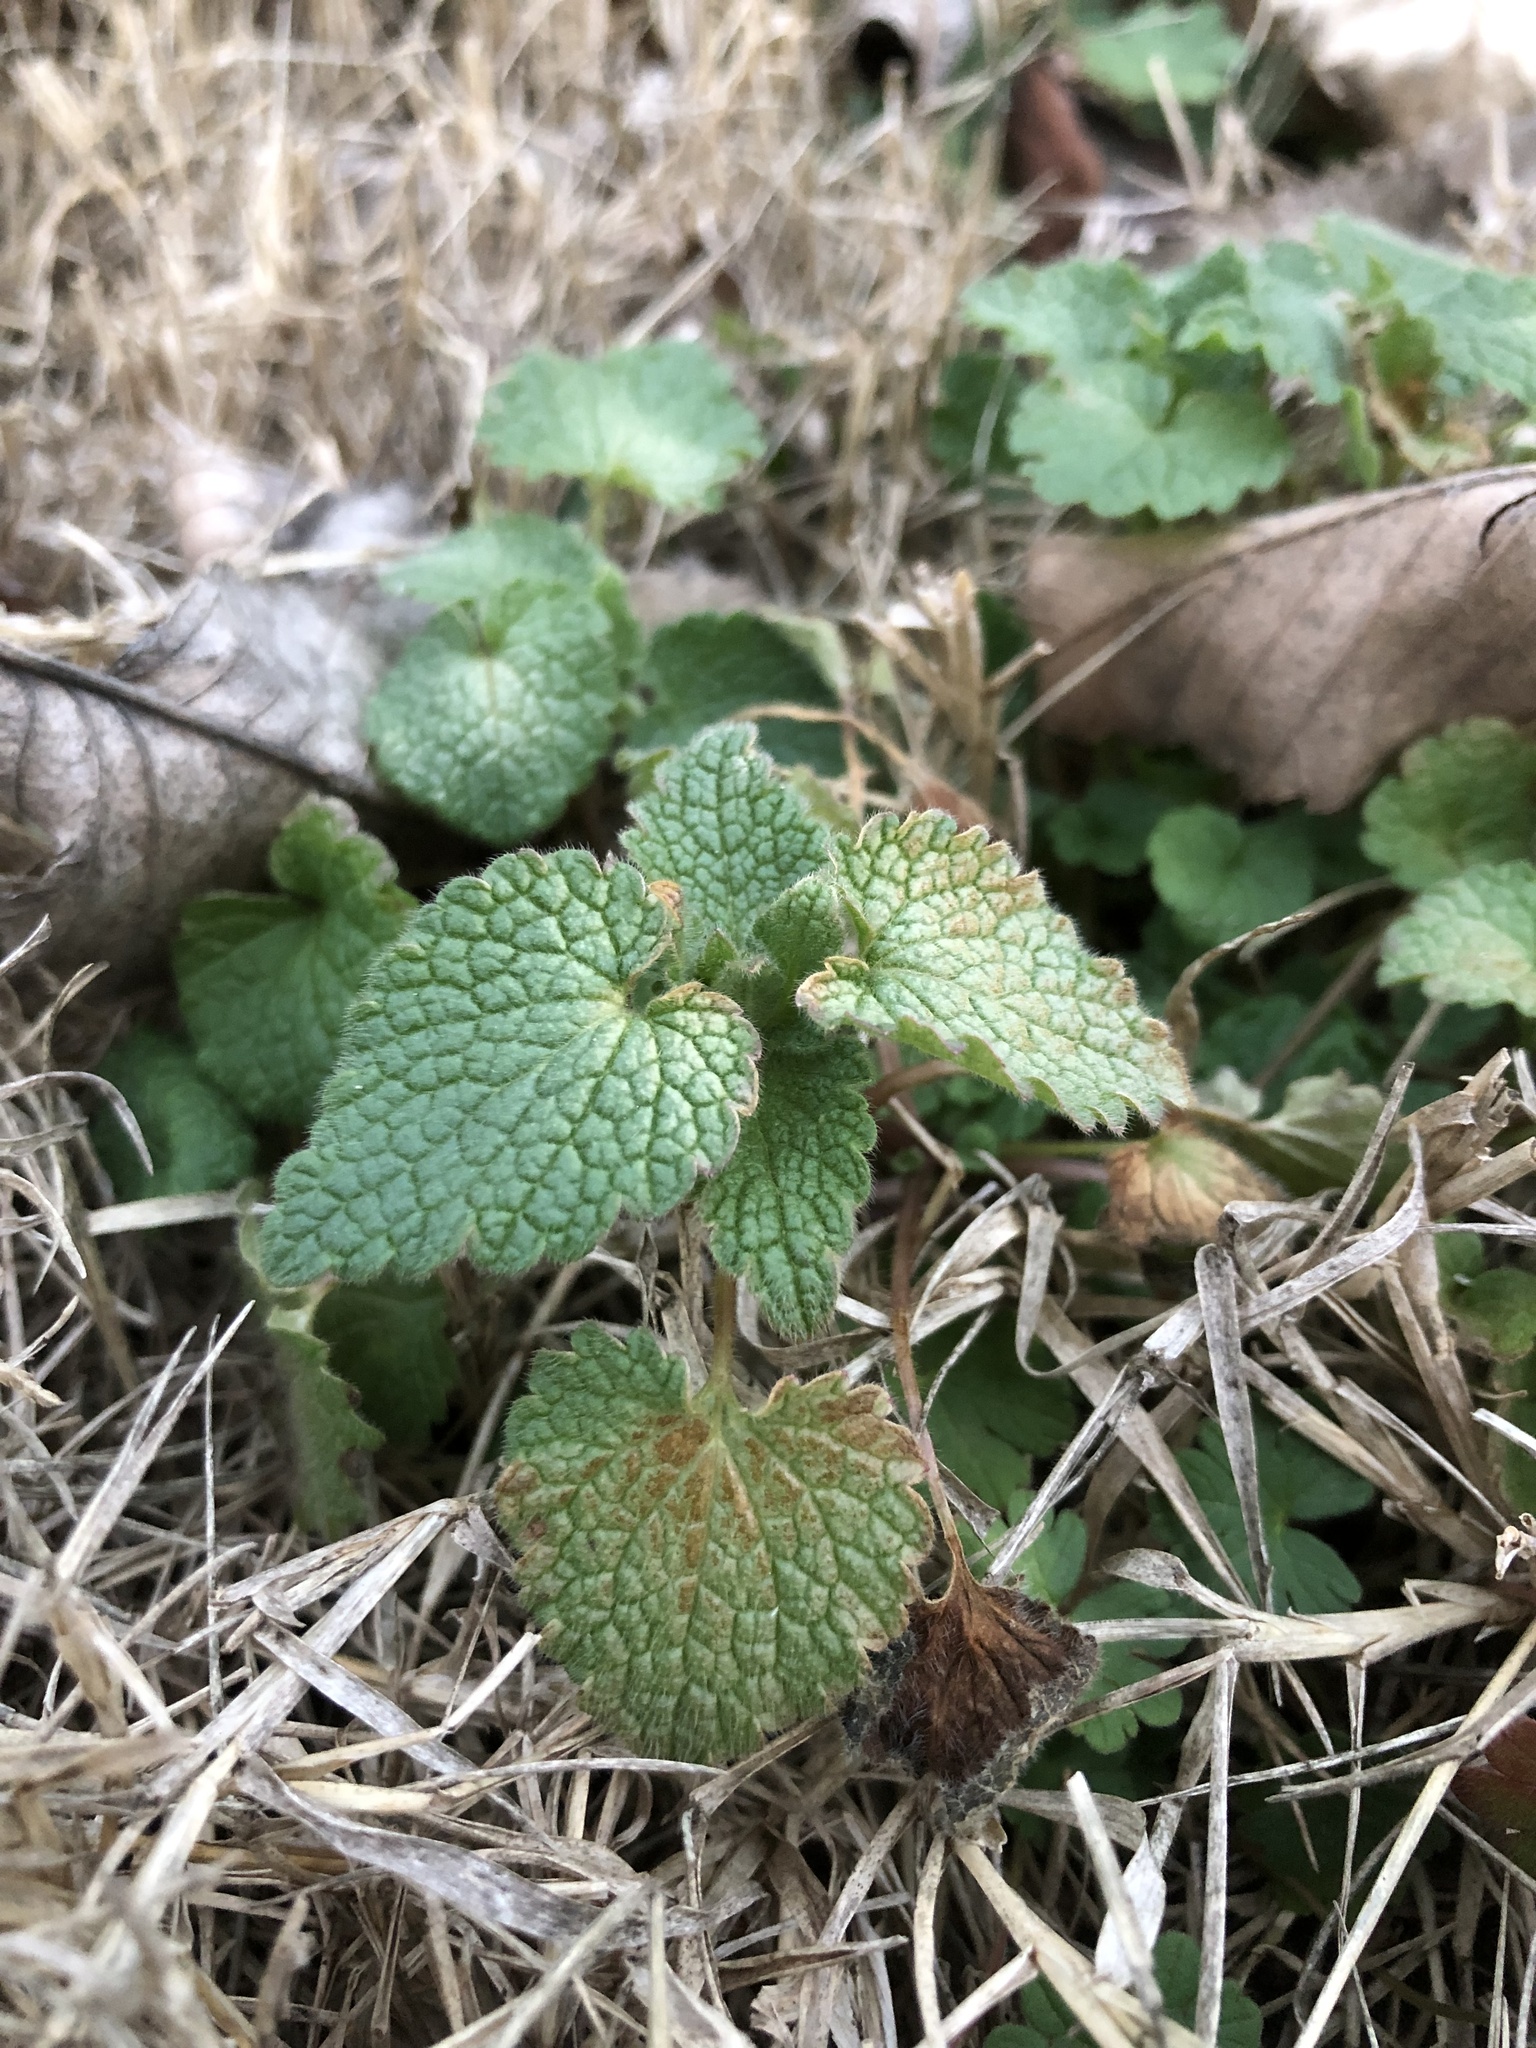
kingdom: Plantae
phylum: Tracheophyta
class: Magnoliopsida
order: Lamiales
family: Lamiaceae
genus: Lamium
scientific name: Lamium purpureum
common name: Red dead-nettle
